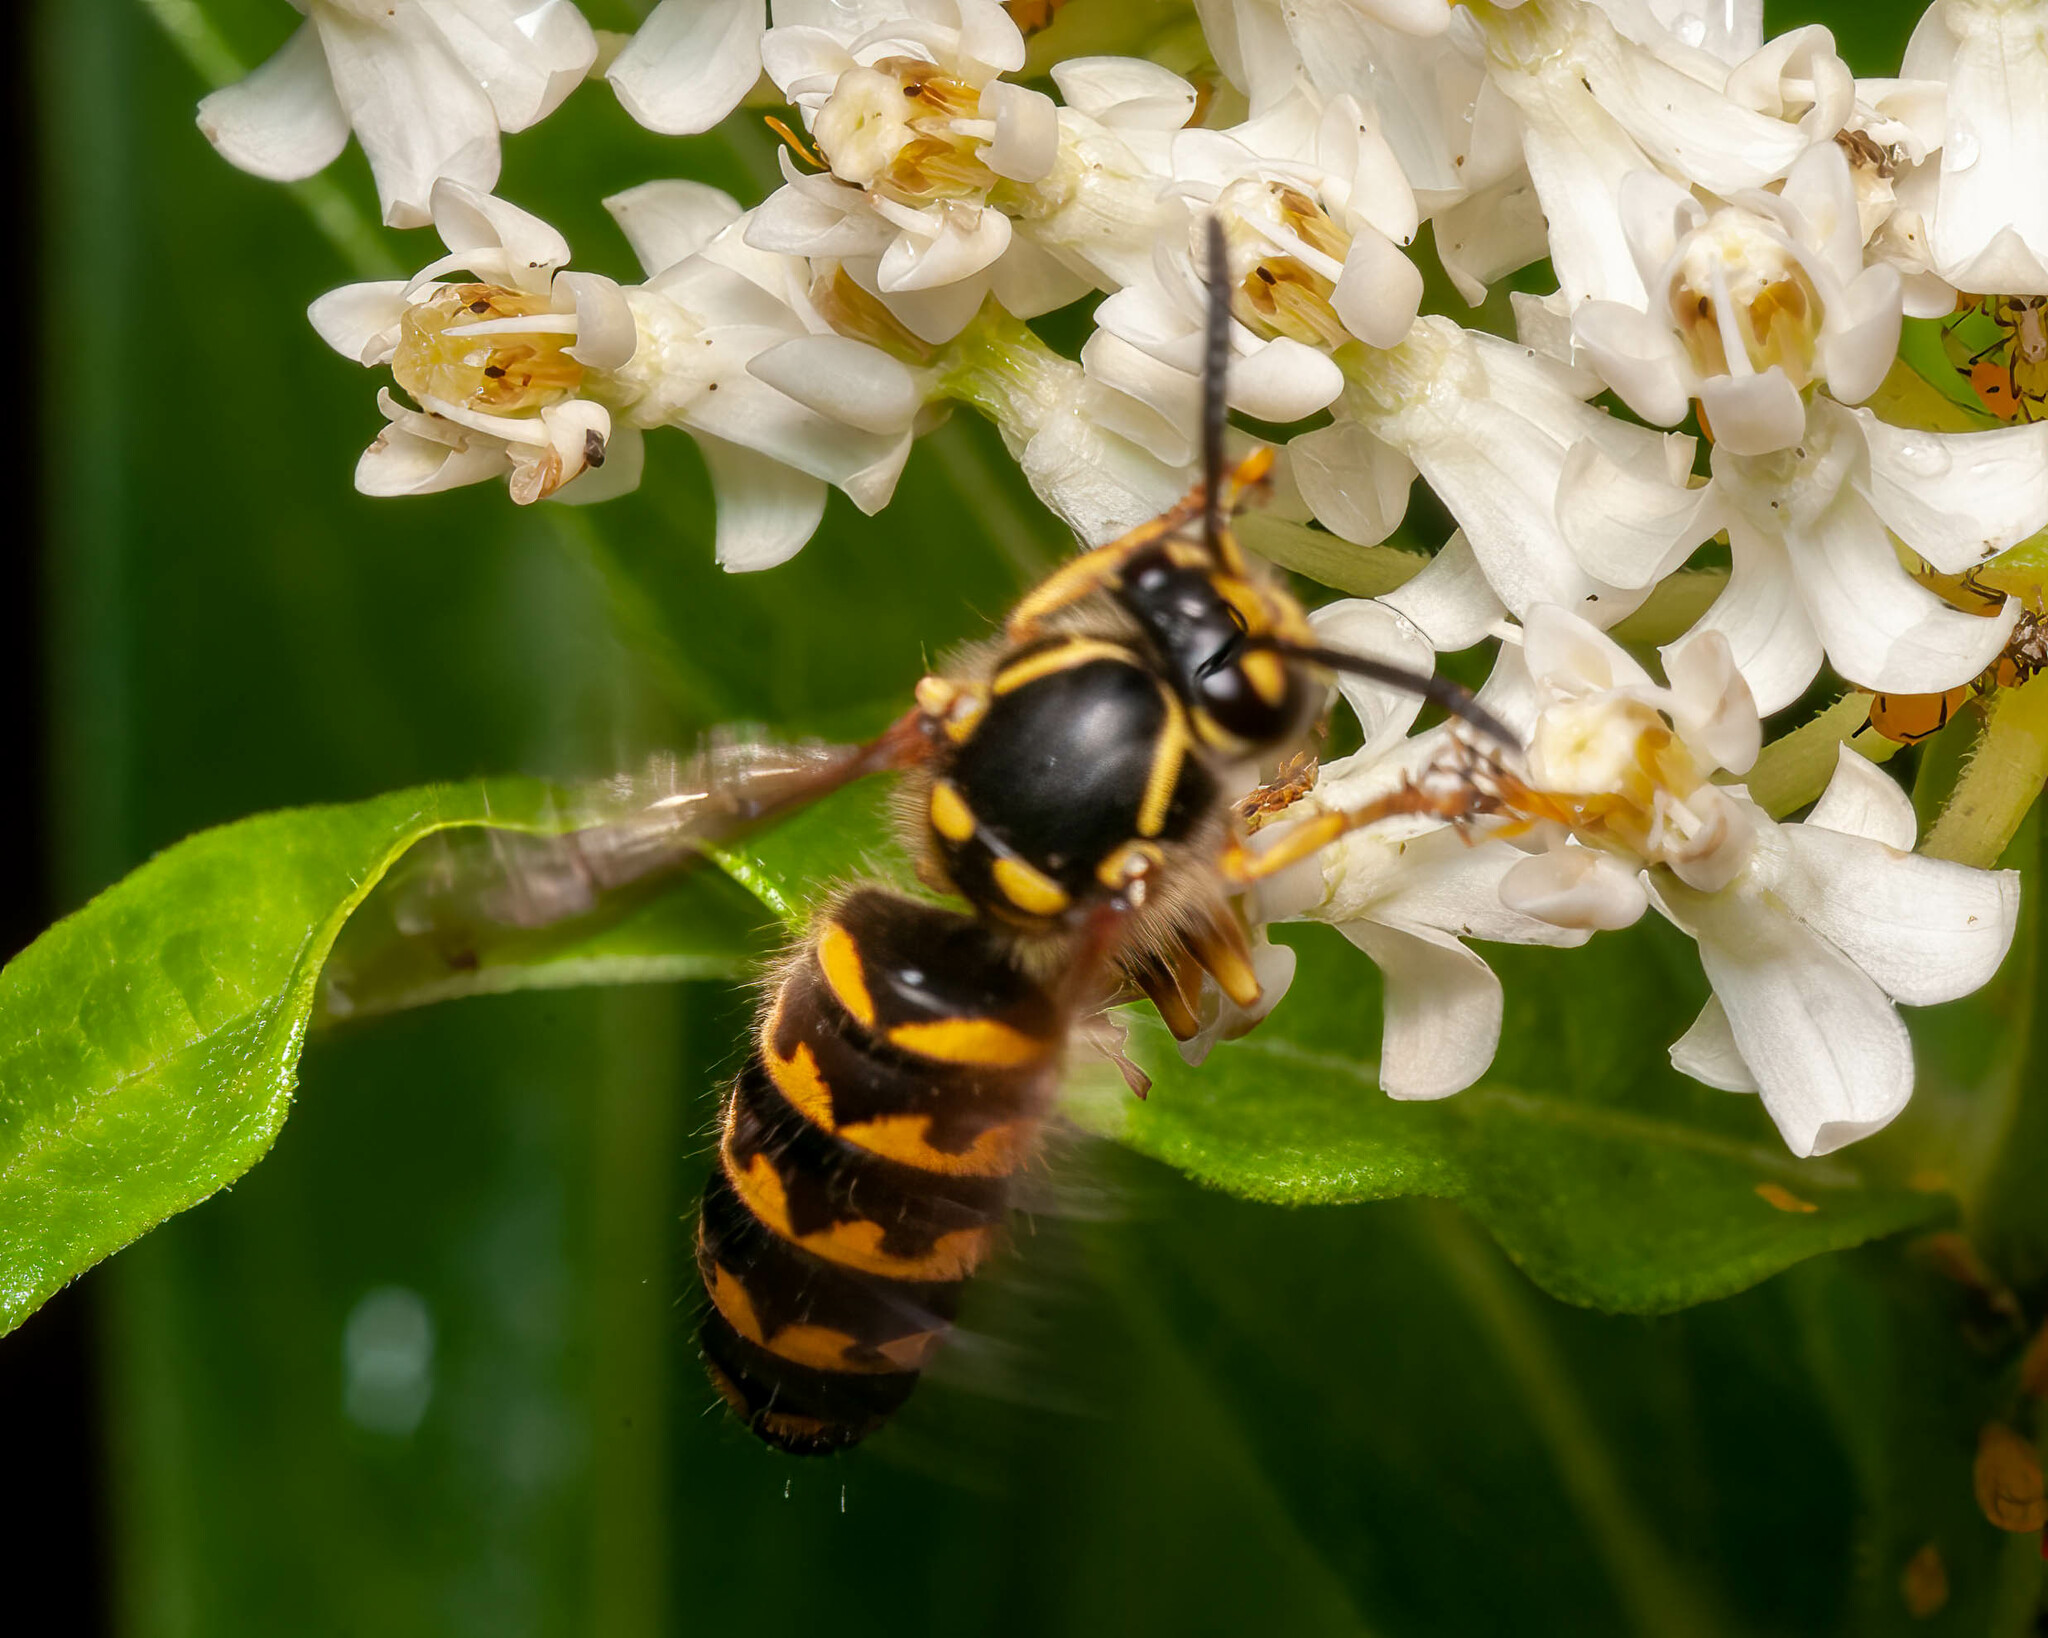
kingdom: Animalia
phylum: Arthropoda
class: Insecta
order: Hymenoptera
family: Vespidae
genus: Dolichovespula
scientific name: Dolichovespula arenaria
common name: Aerial yellowjacket
